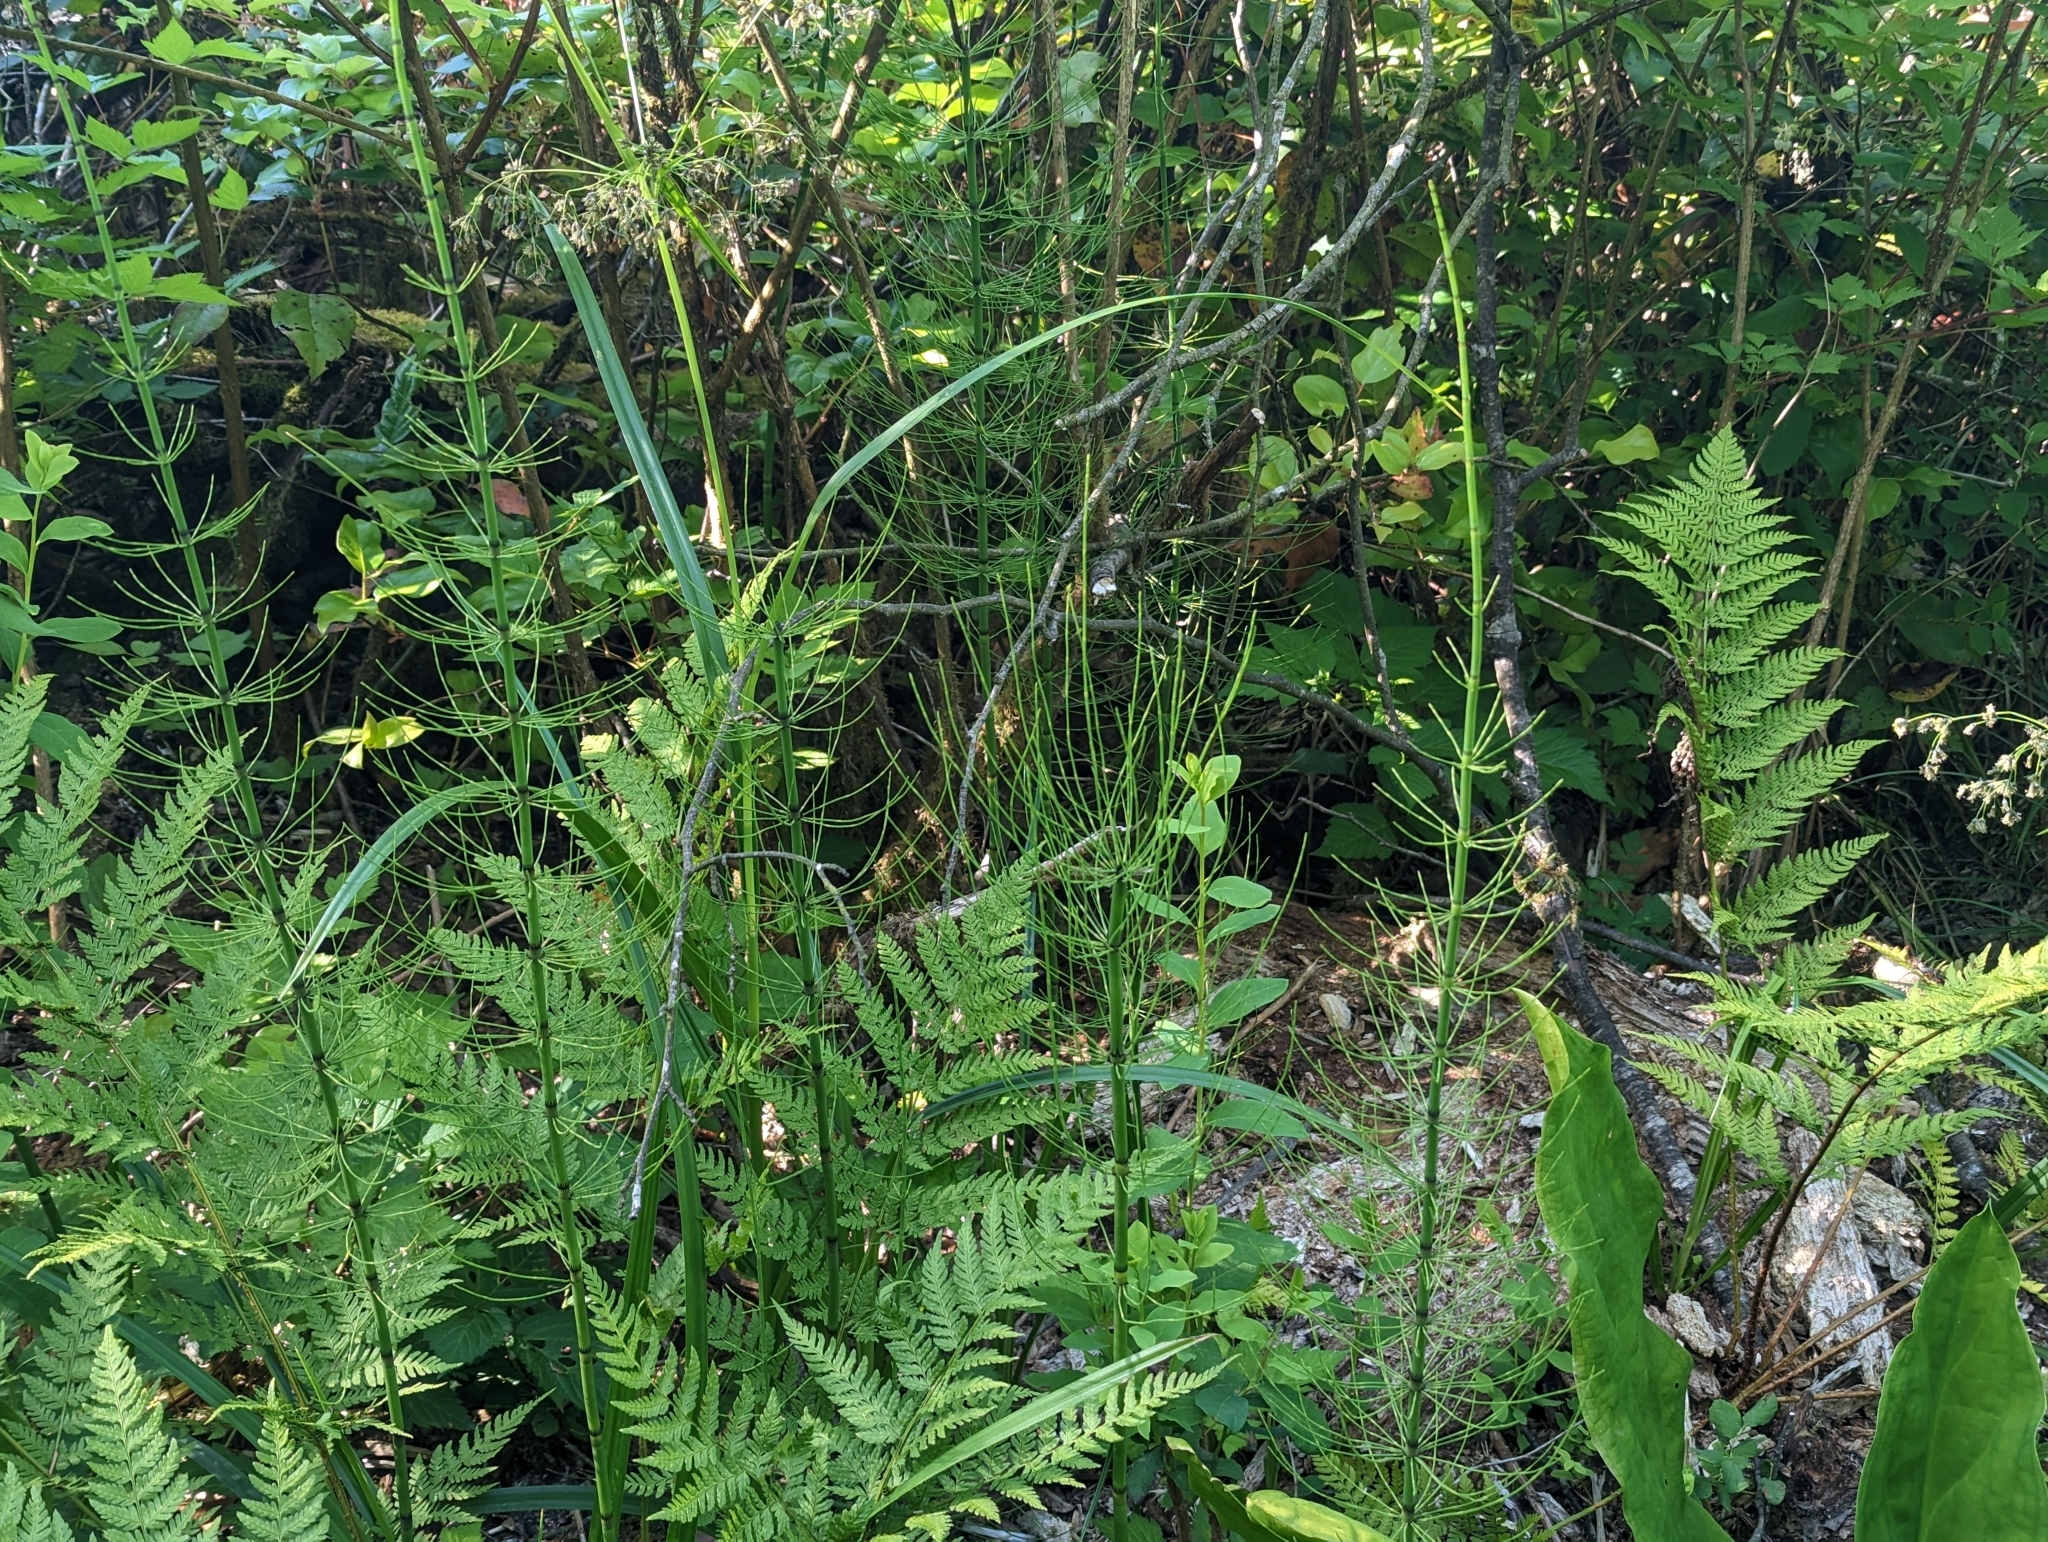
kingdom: Plantae
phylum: Tracheophyta
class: Polypodiopsida
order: Equisetales
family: Equisetaceae
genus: Equisetum
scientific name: Equisetum fluviatile
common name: Water horsetail
